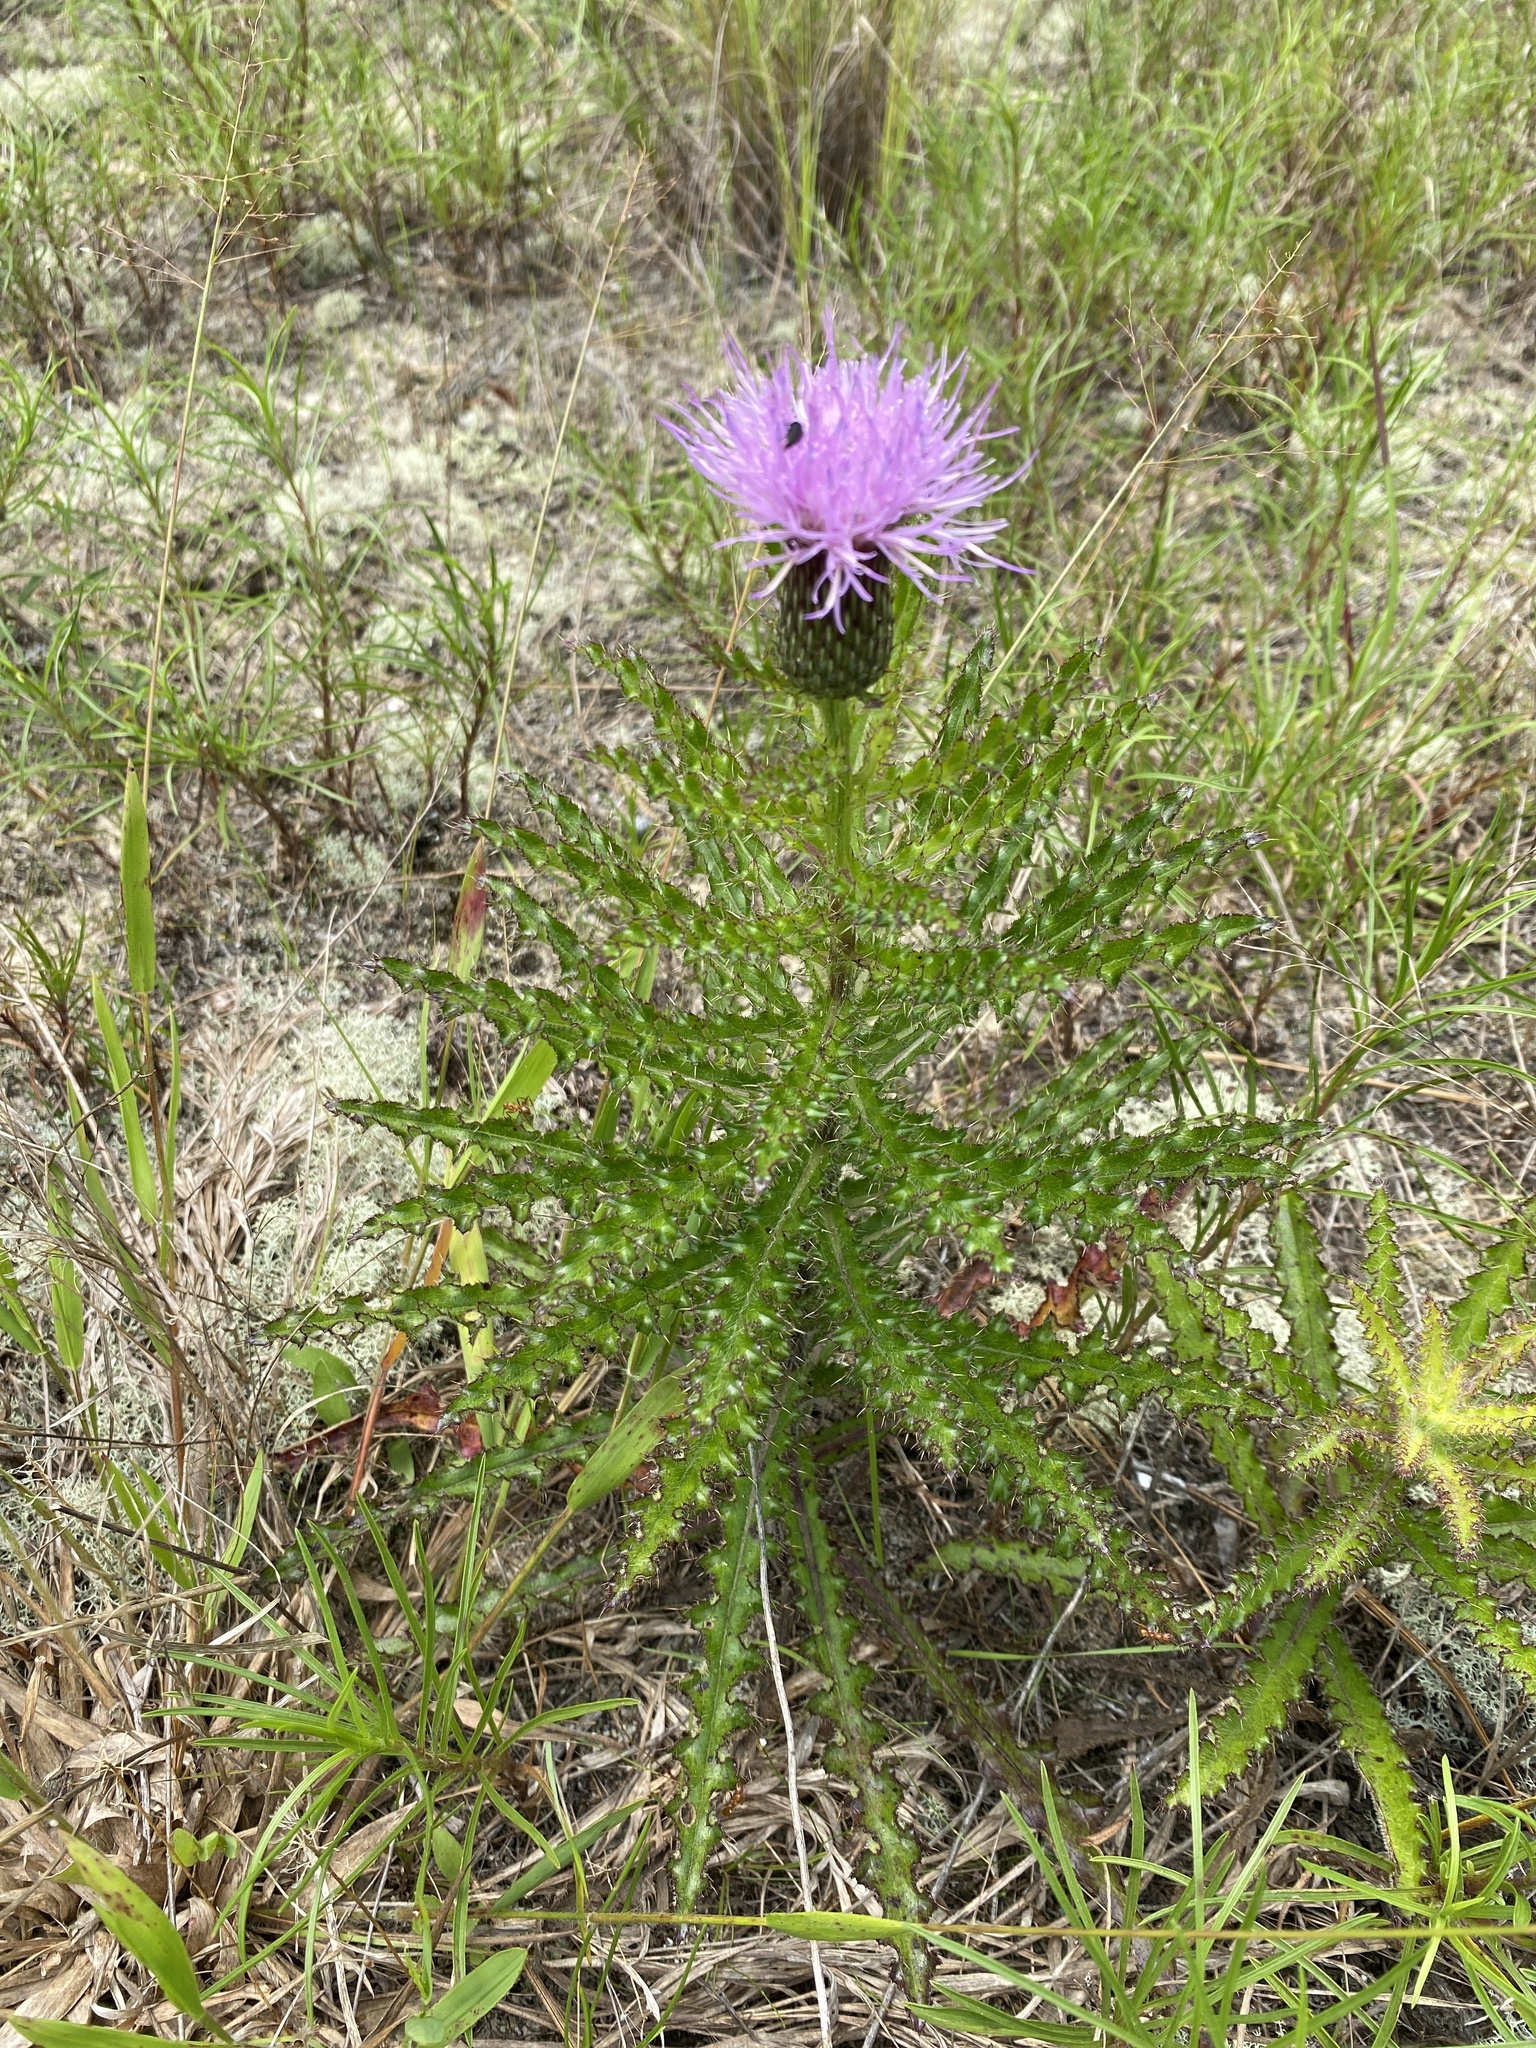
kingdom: Plantae
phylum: Tracheophyta
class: Magnoliopsida
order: Asterales
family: Asteraceae
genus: Cirsium
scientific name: Cirsium repandum
